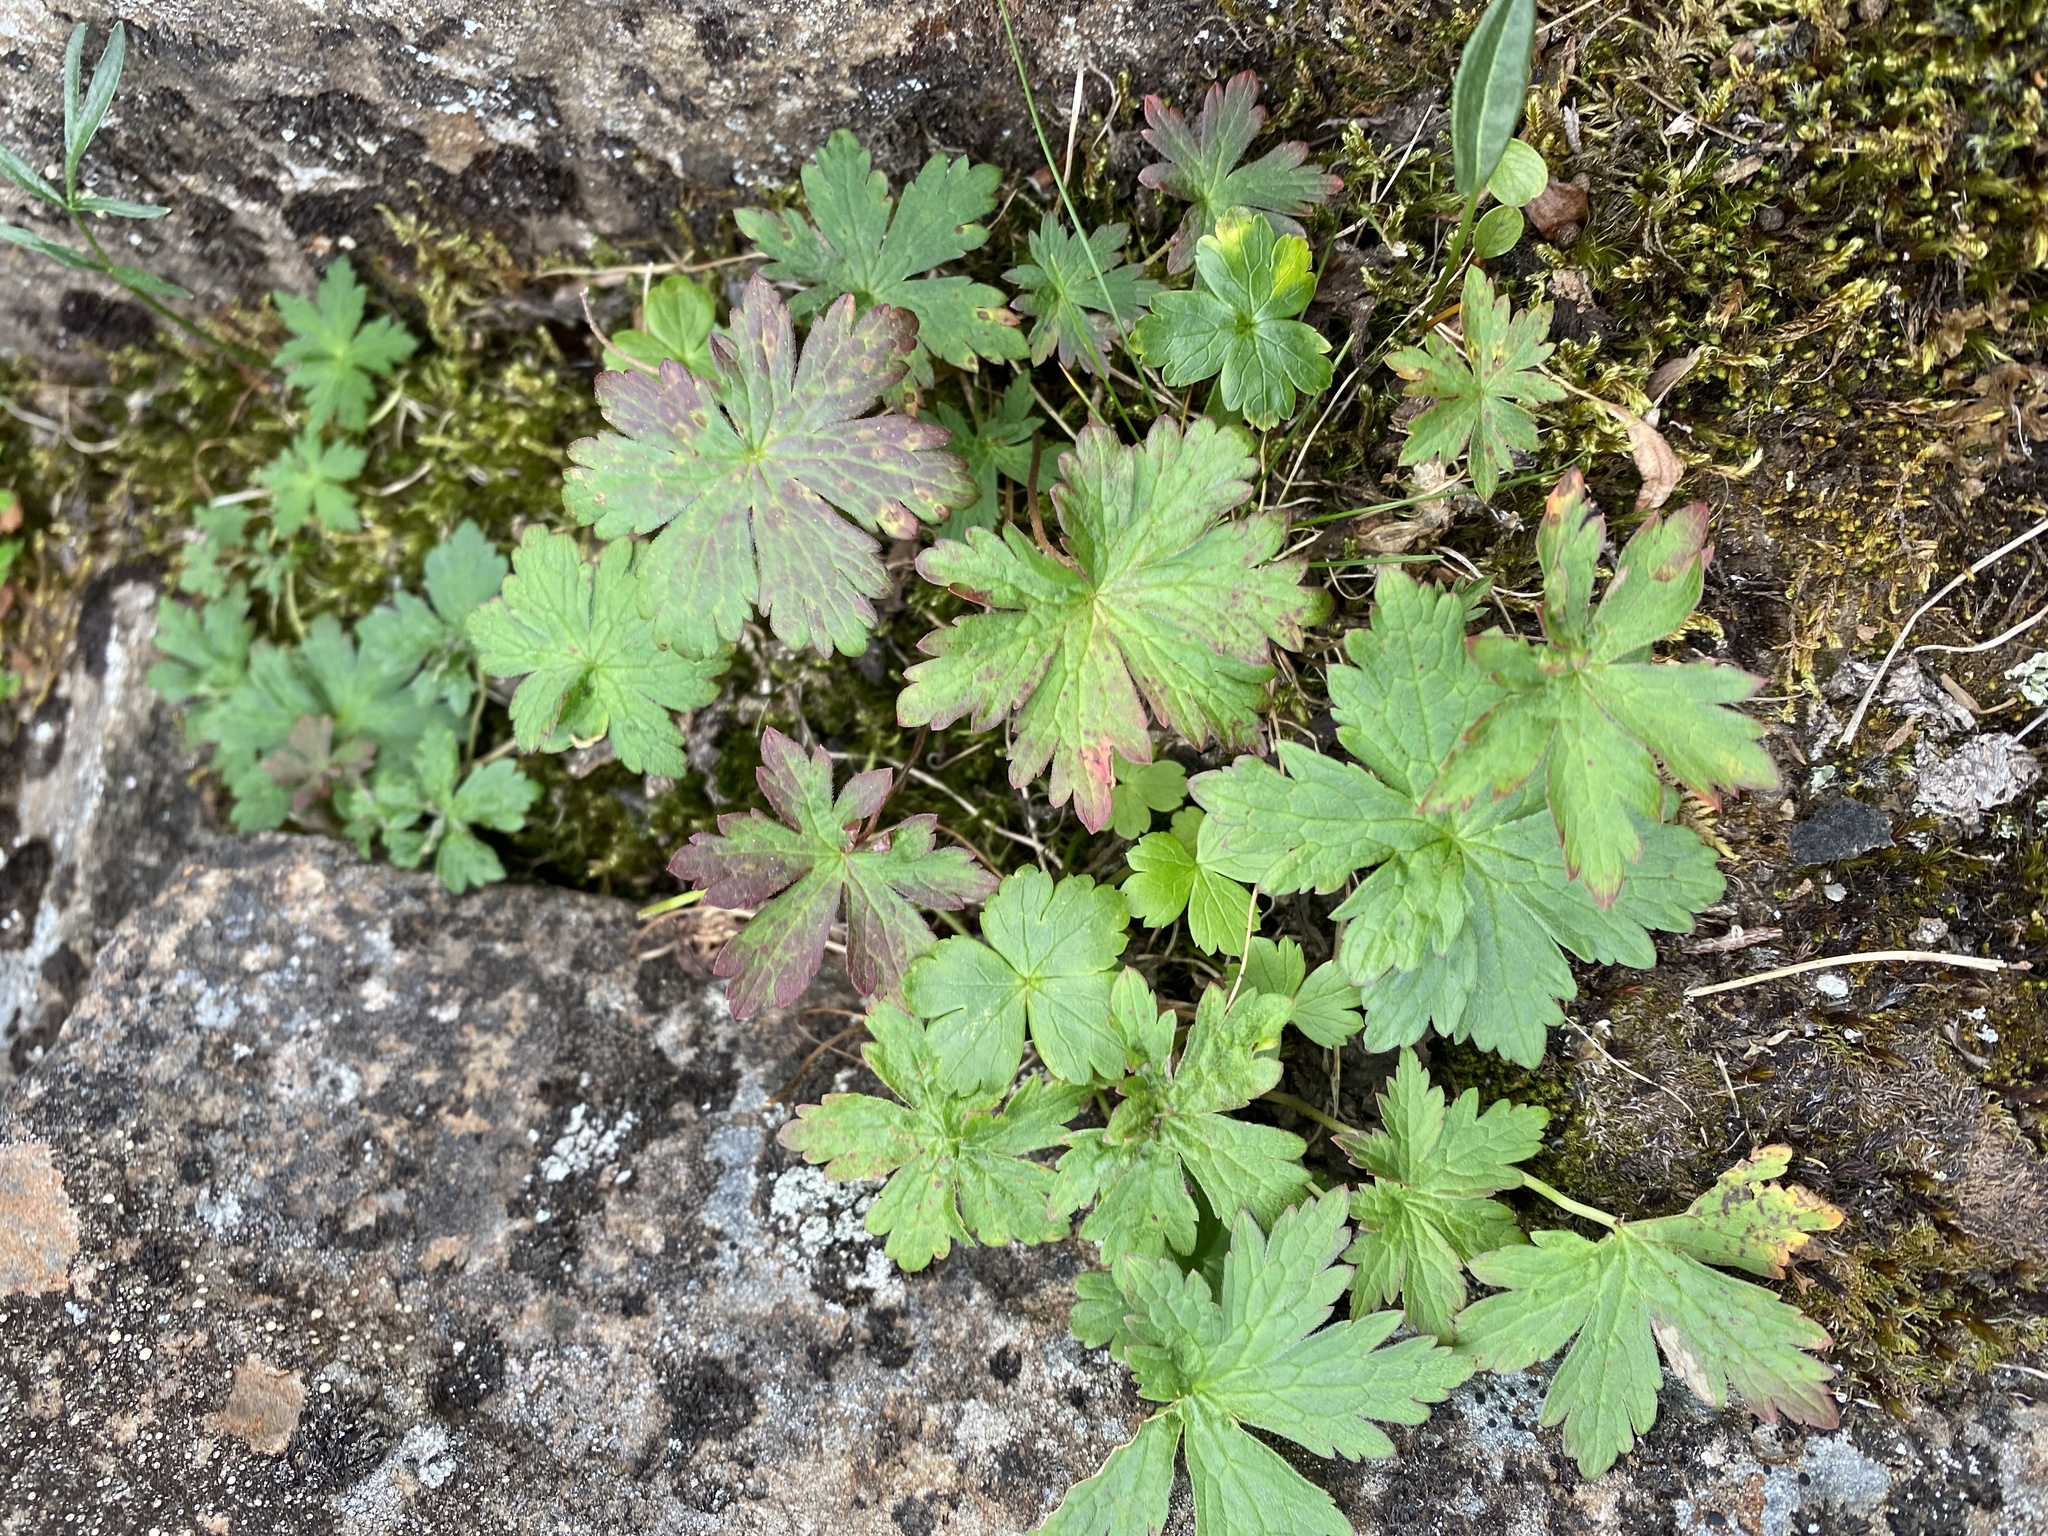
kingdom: Plantae
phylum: Tracheophyta
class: Magnoliopsida
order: Geraniales
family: Geraniaceae
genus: Geranium
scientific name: Geranium sylvaticum
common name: Wood crane's-bill
